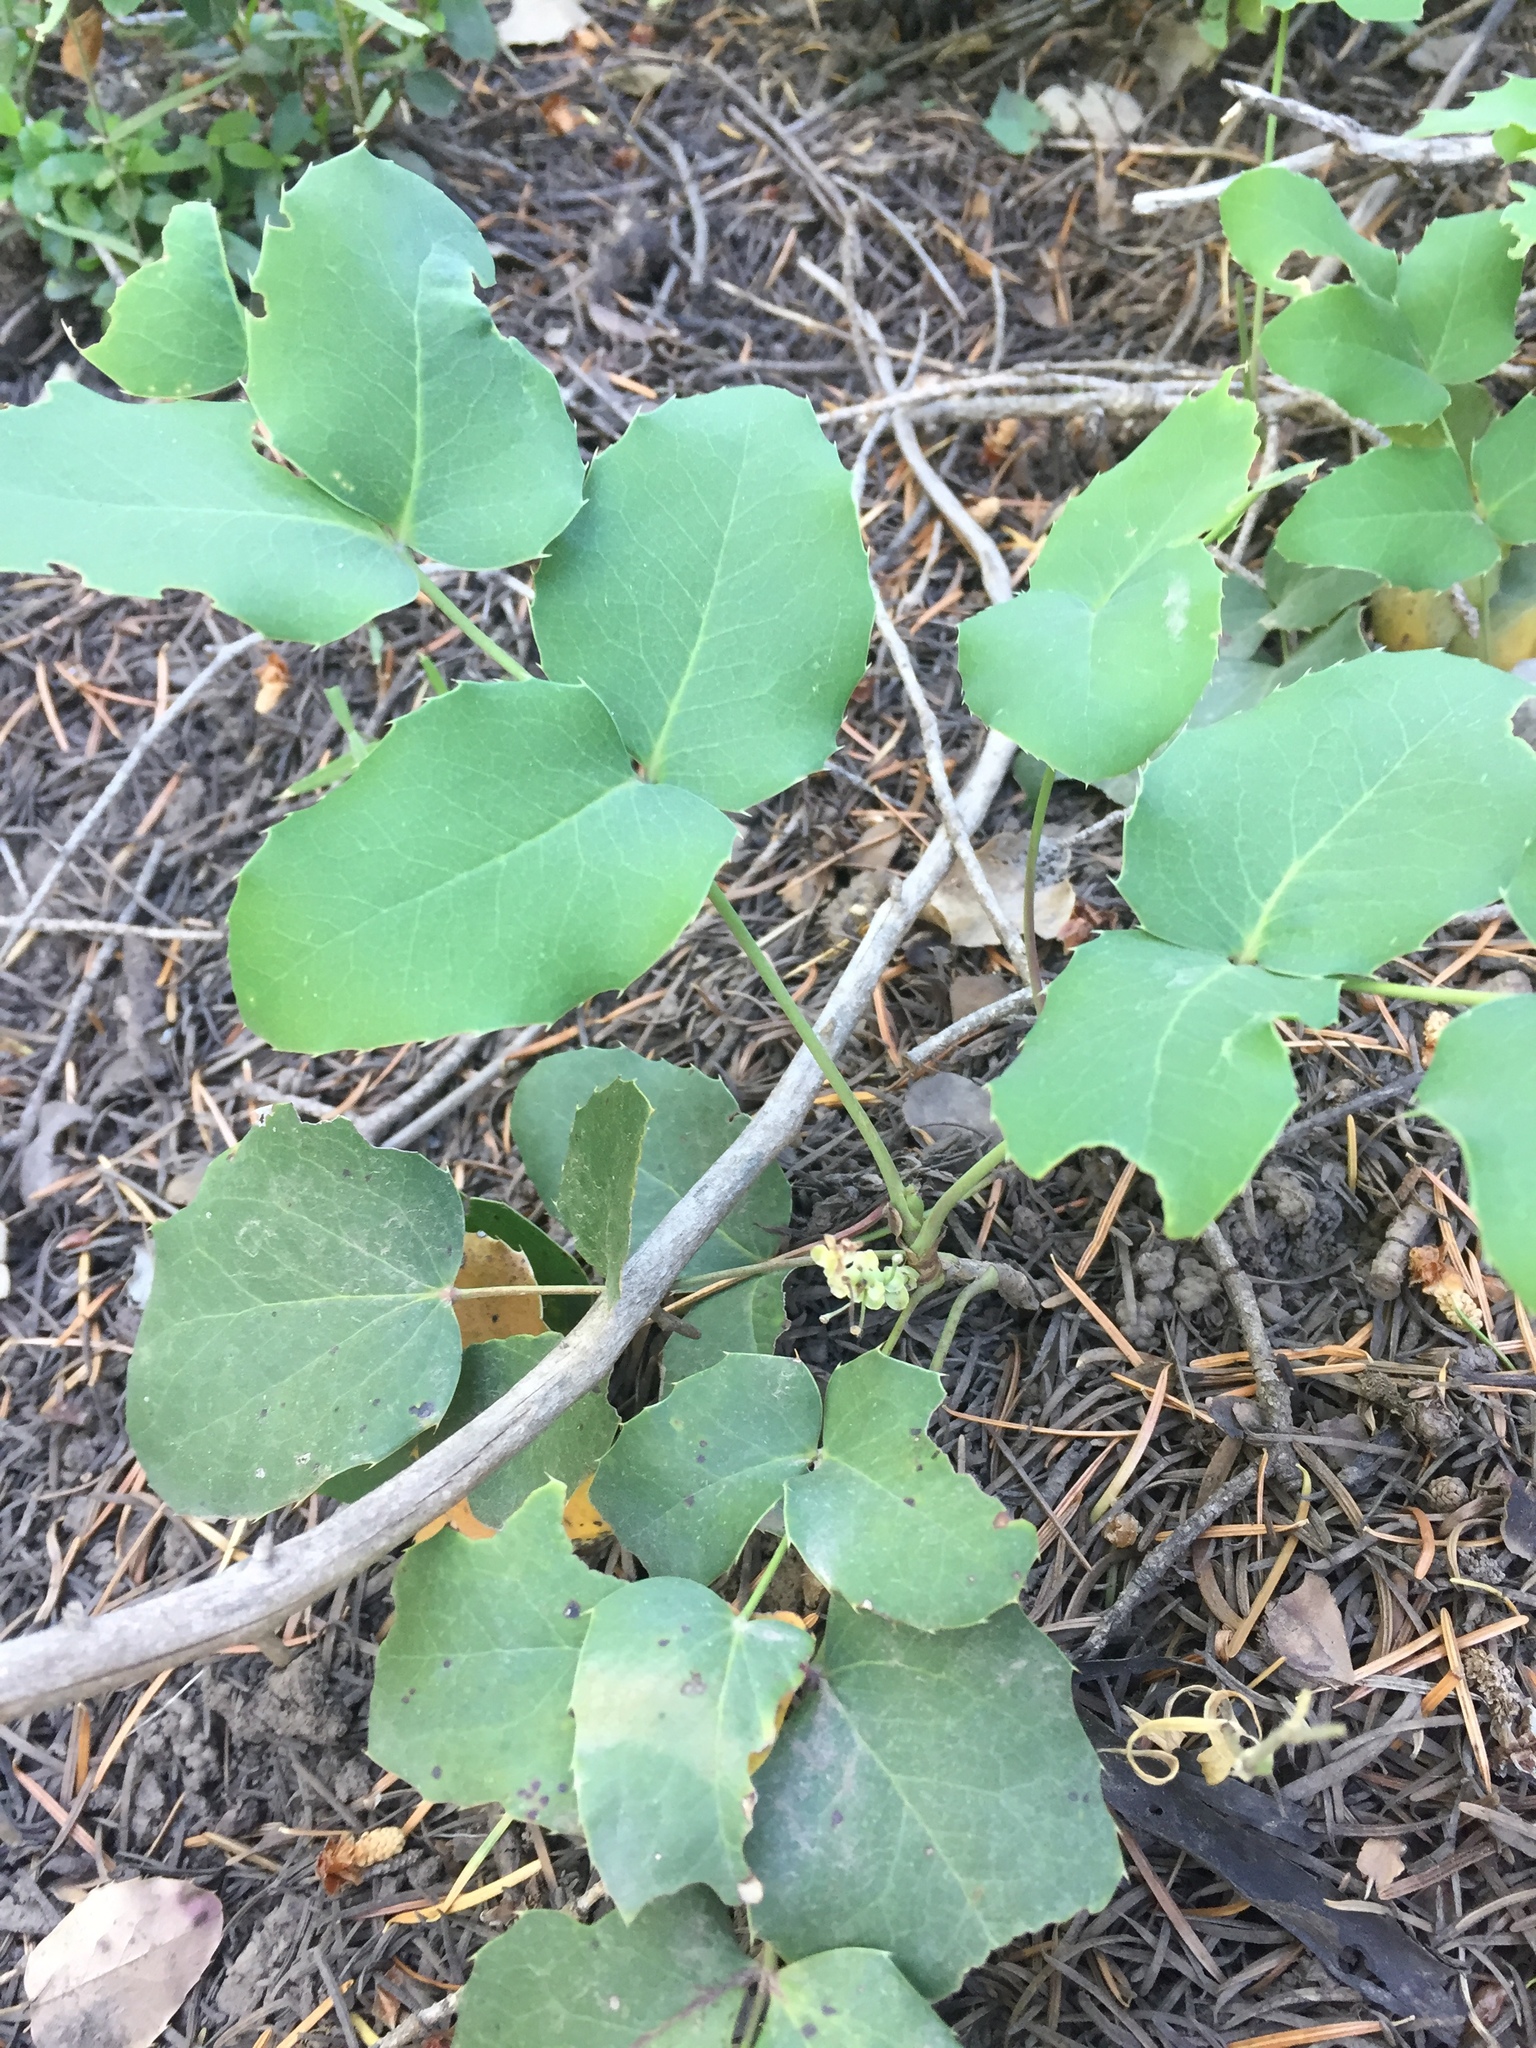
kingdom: Plantae
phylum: Tracheophyta
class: Magnoliopsida
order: Ranunculales
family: Berberidaceae
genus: Mahonia
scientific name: Mahonia repens
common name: Creeping oregon-grape
